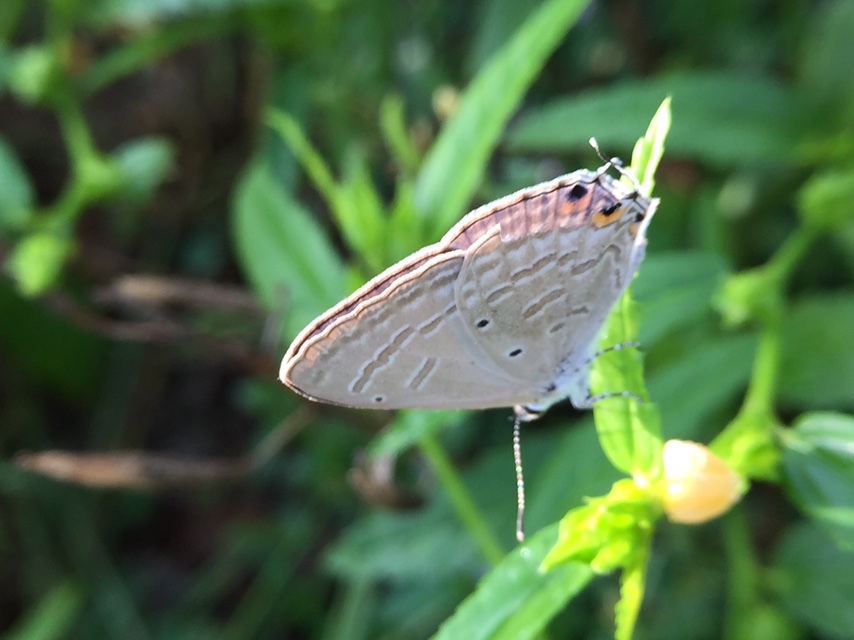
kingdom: Animalia
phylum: Arthropoda
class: Insecta
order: Lepidoptera
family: Lycaenidae
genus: Catochrysops
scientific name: Catochrysops strabo
